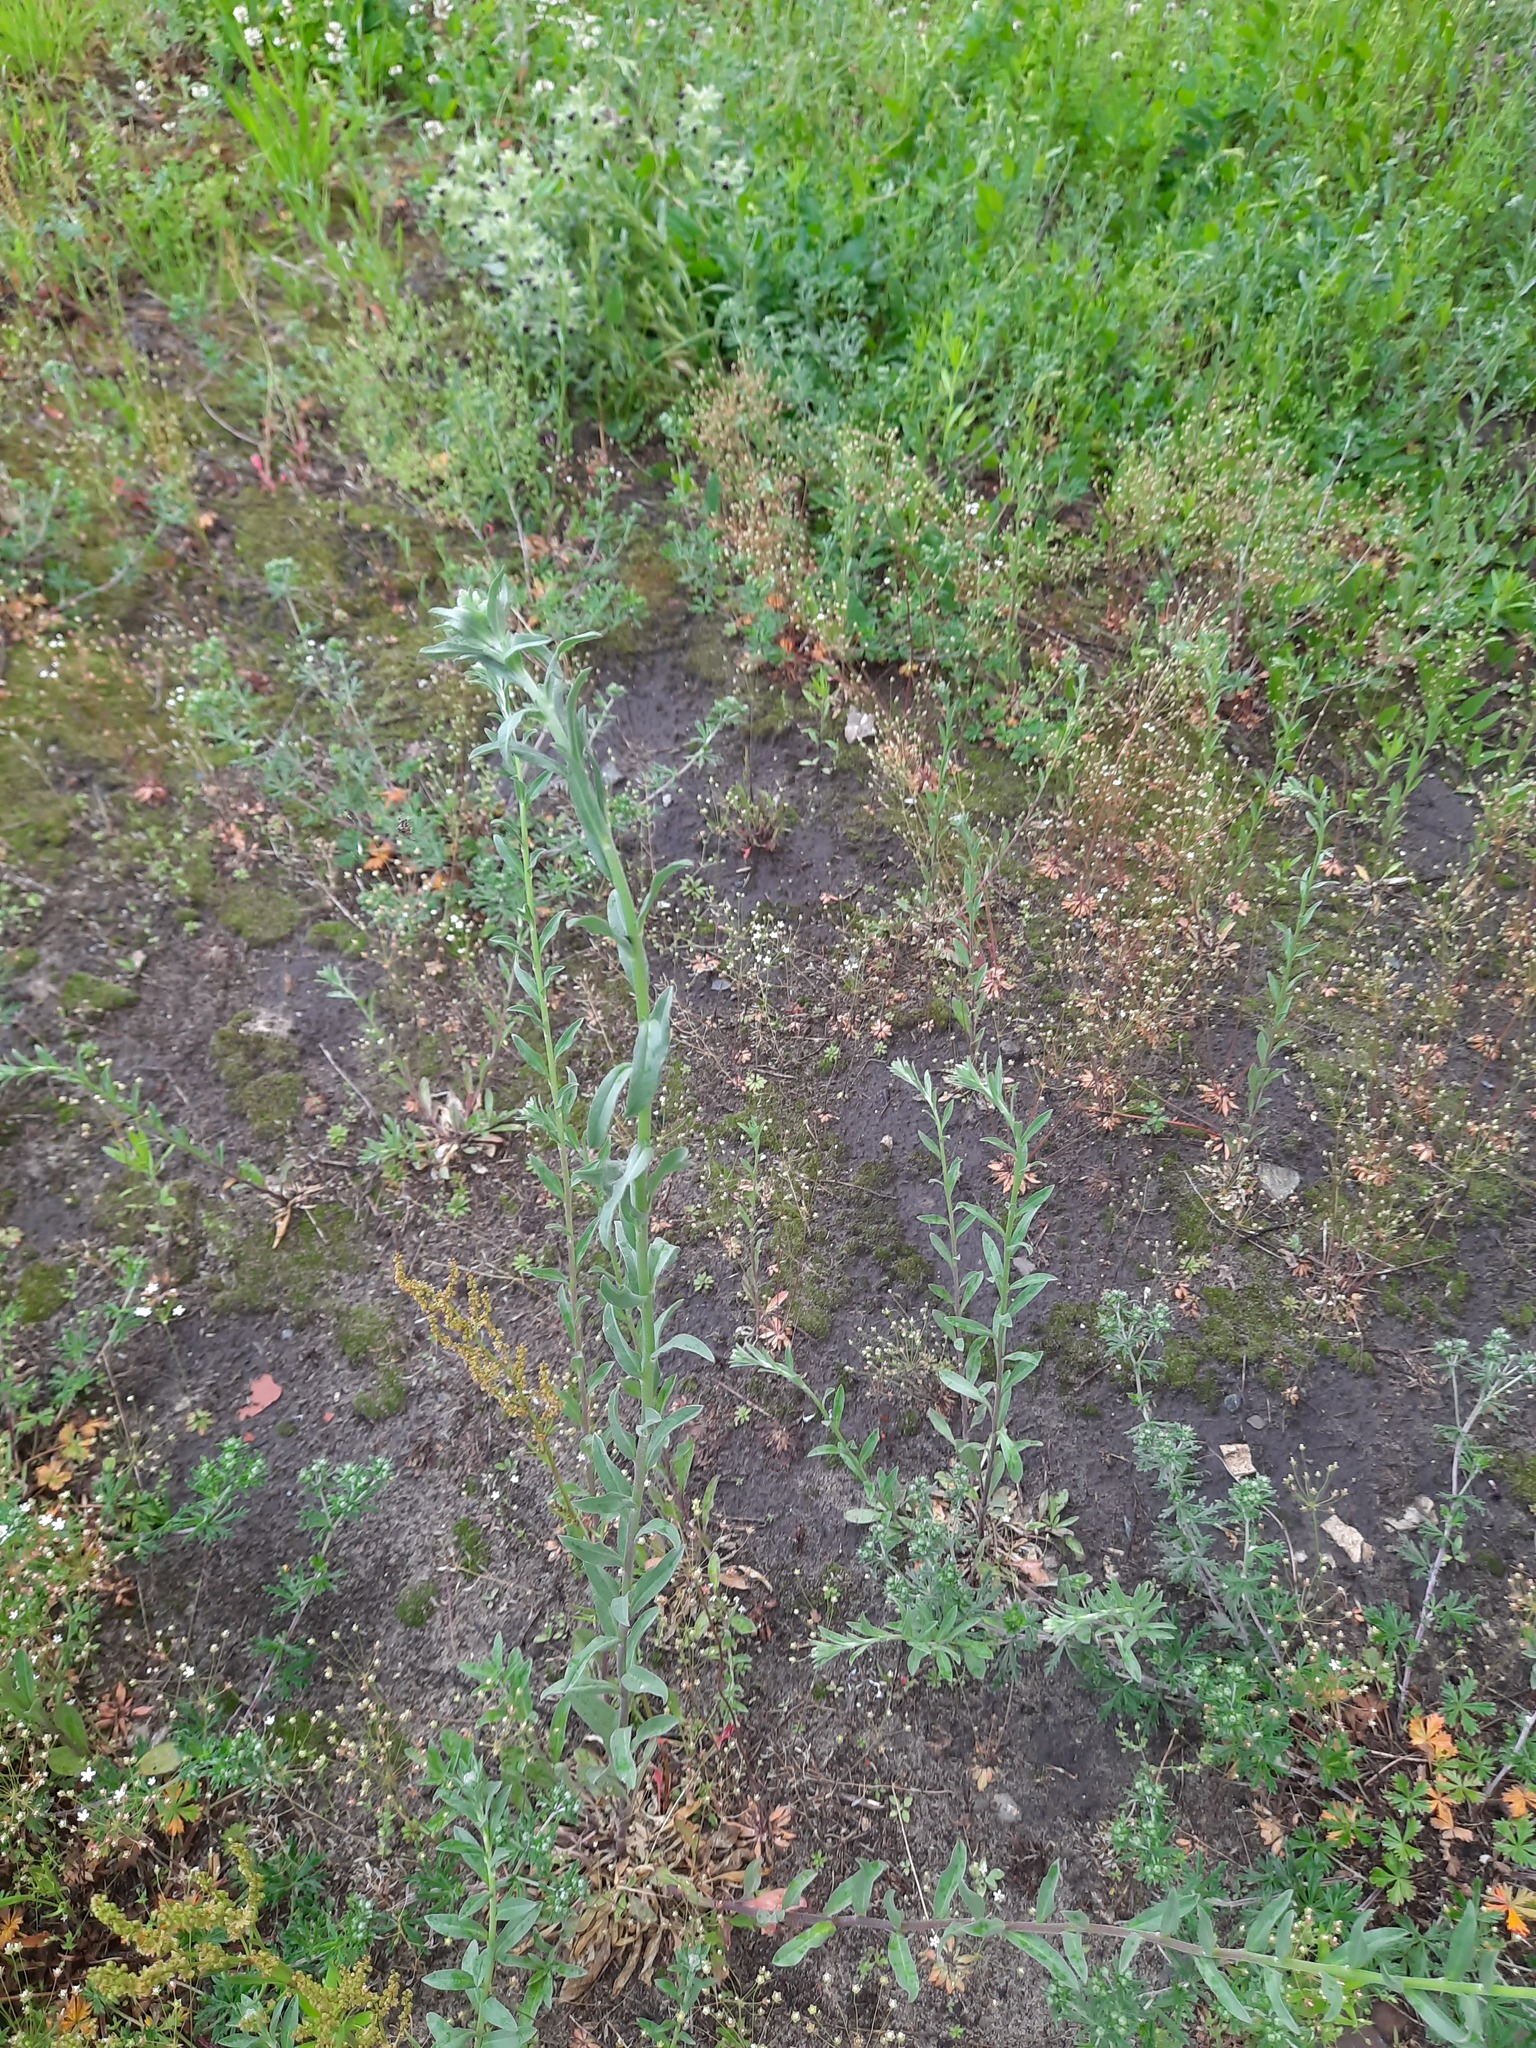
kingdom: Plantae
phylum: Tracheophyta
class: Magnoliopsida
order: Brassicales
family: Brassicaceae
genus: Berteroa
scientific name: Berteroa incana
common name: Hoary alison
